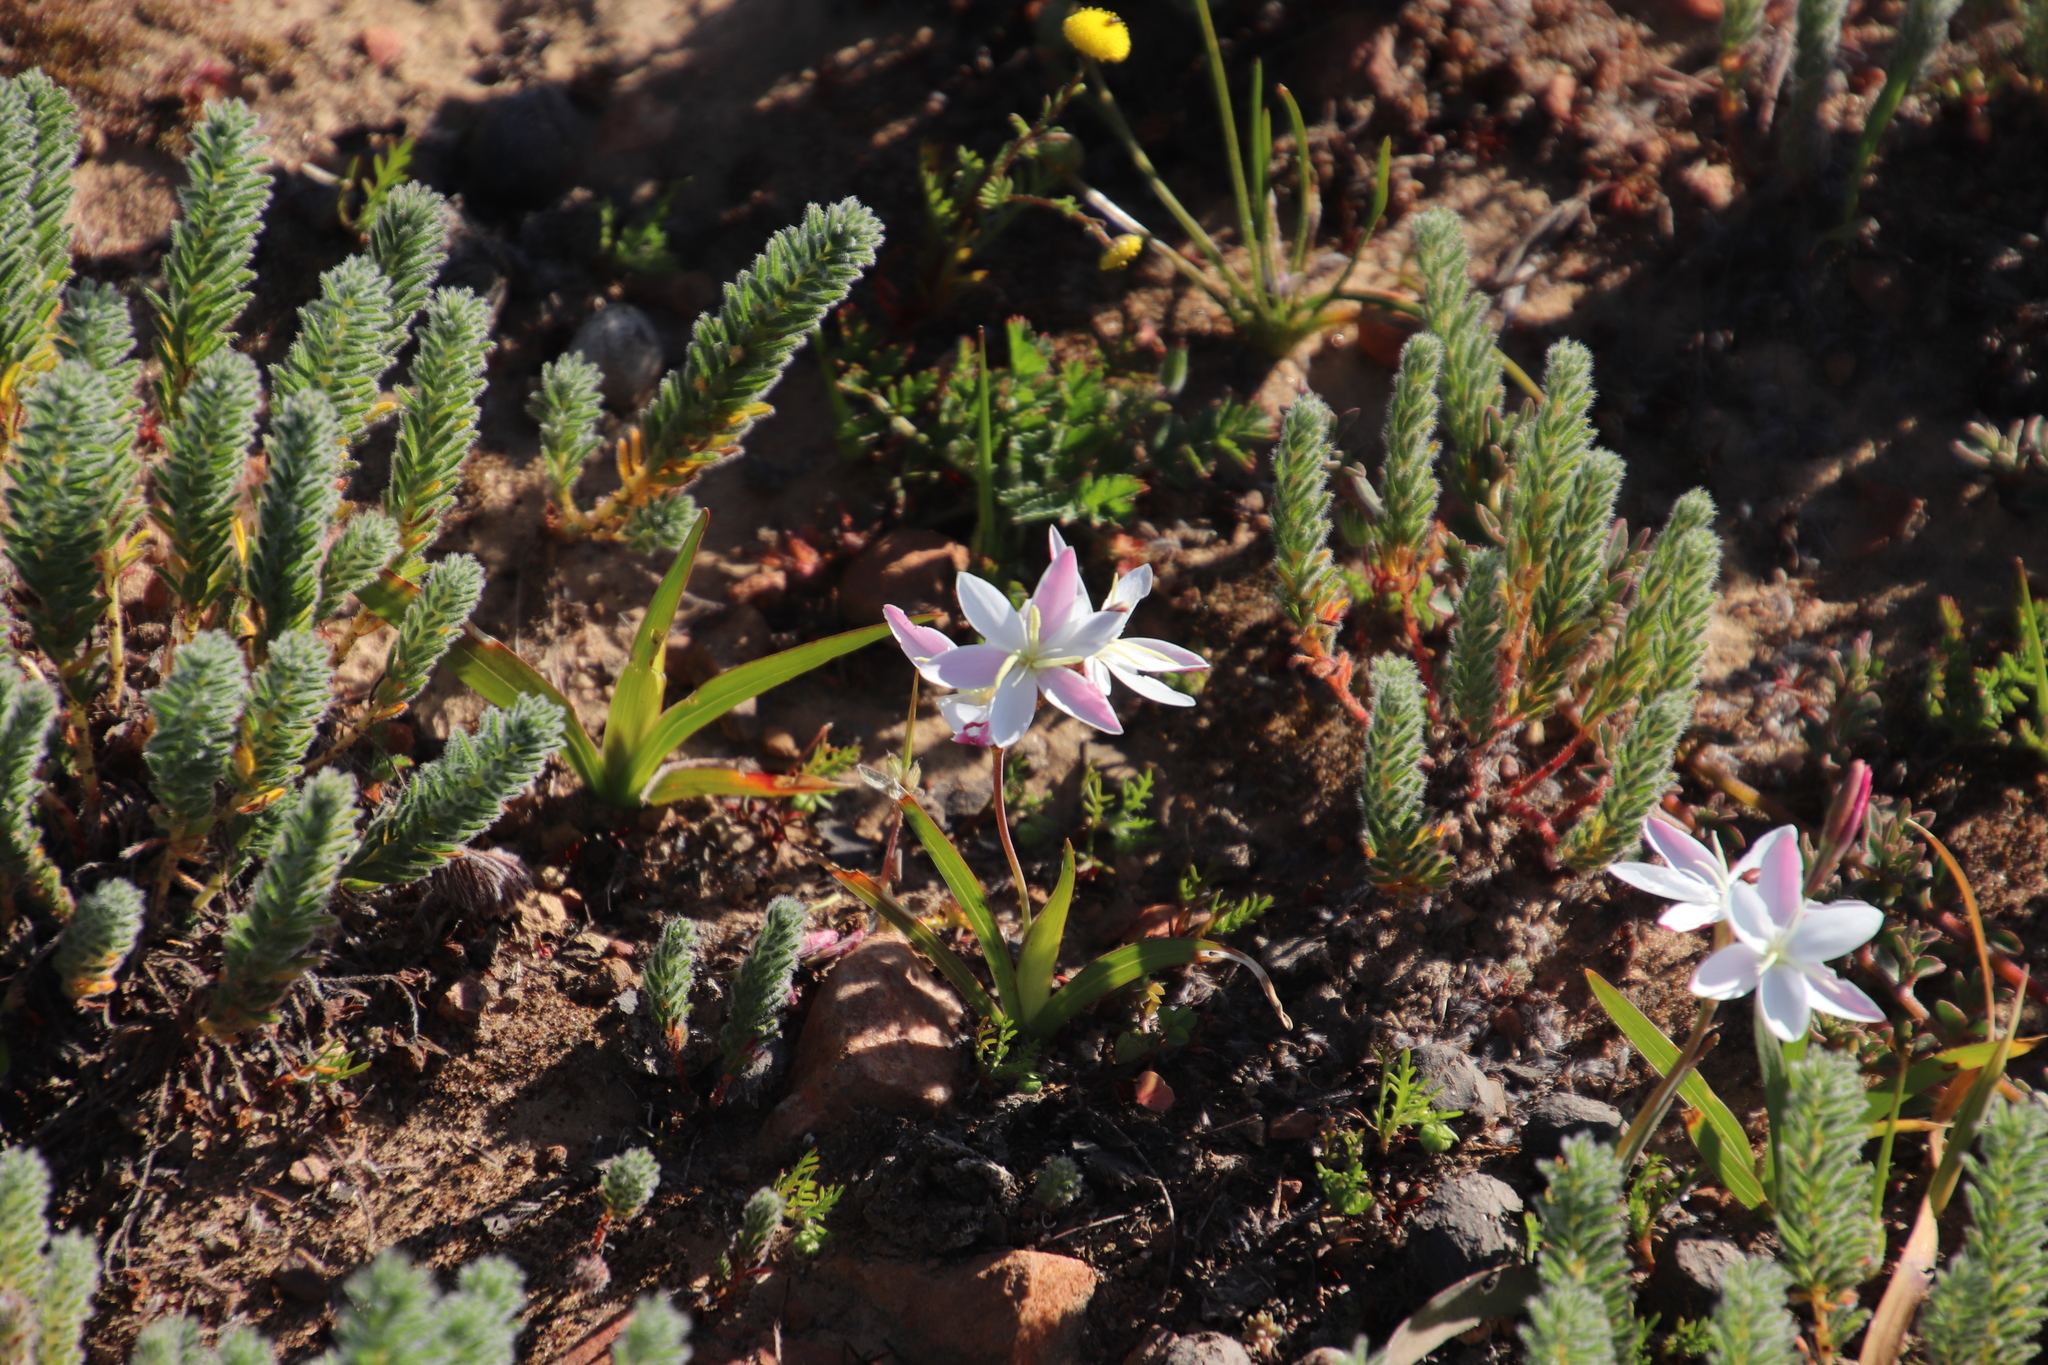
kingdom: Plantae
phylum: Tracheophyta
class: Liliopsida
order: Asparagales
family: Iridaceae
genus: Hesperantha
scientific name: Hesperantha cucullata
